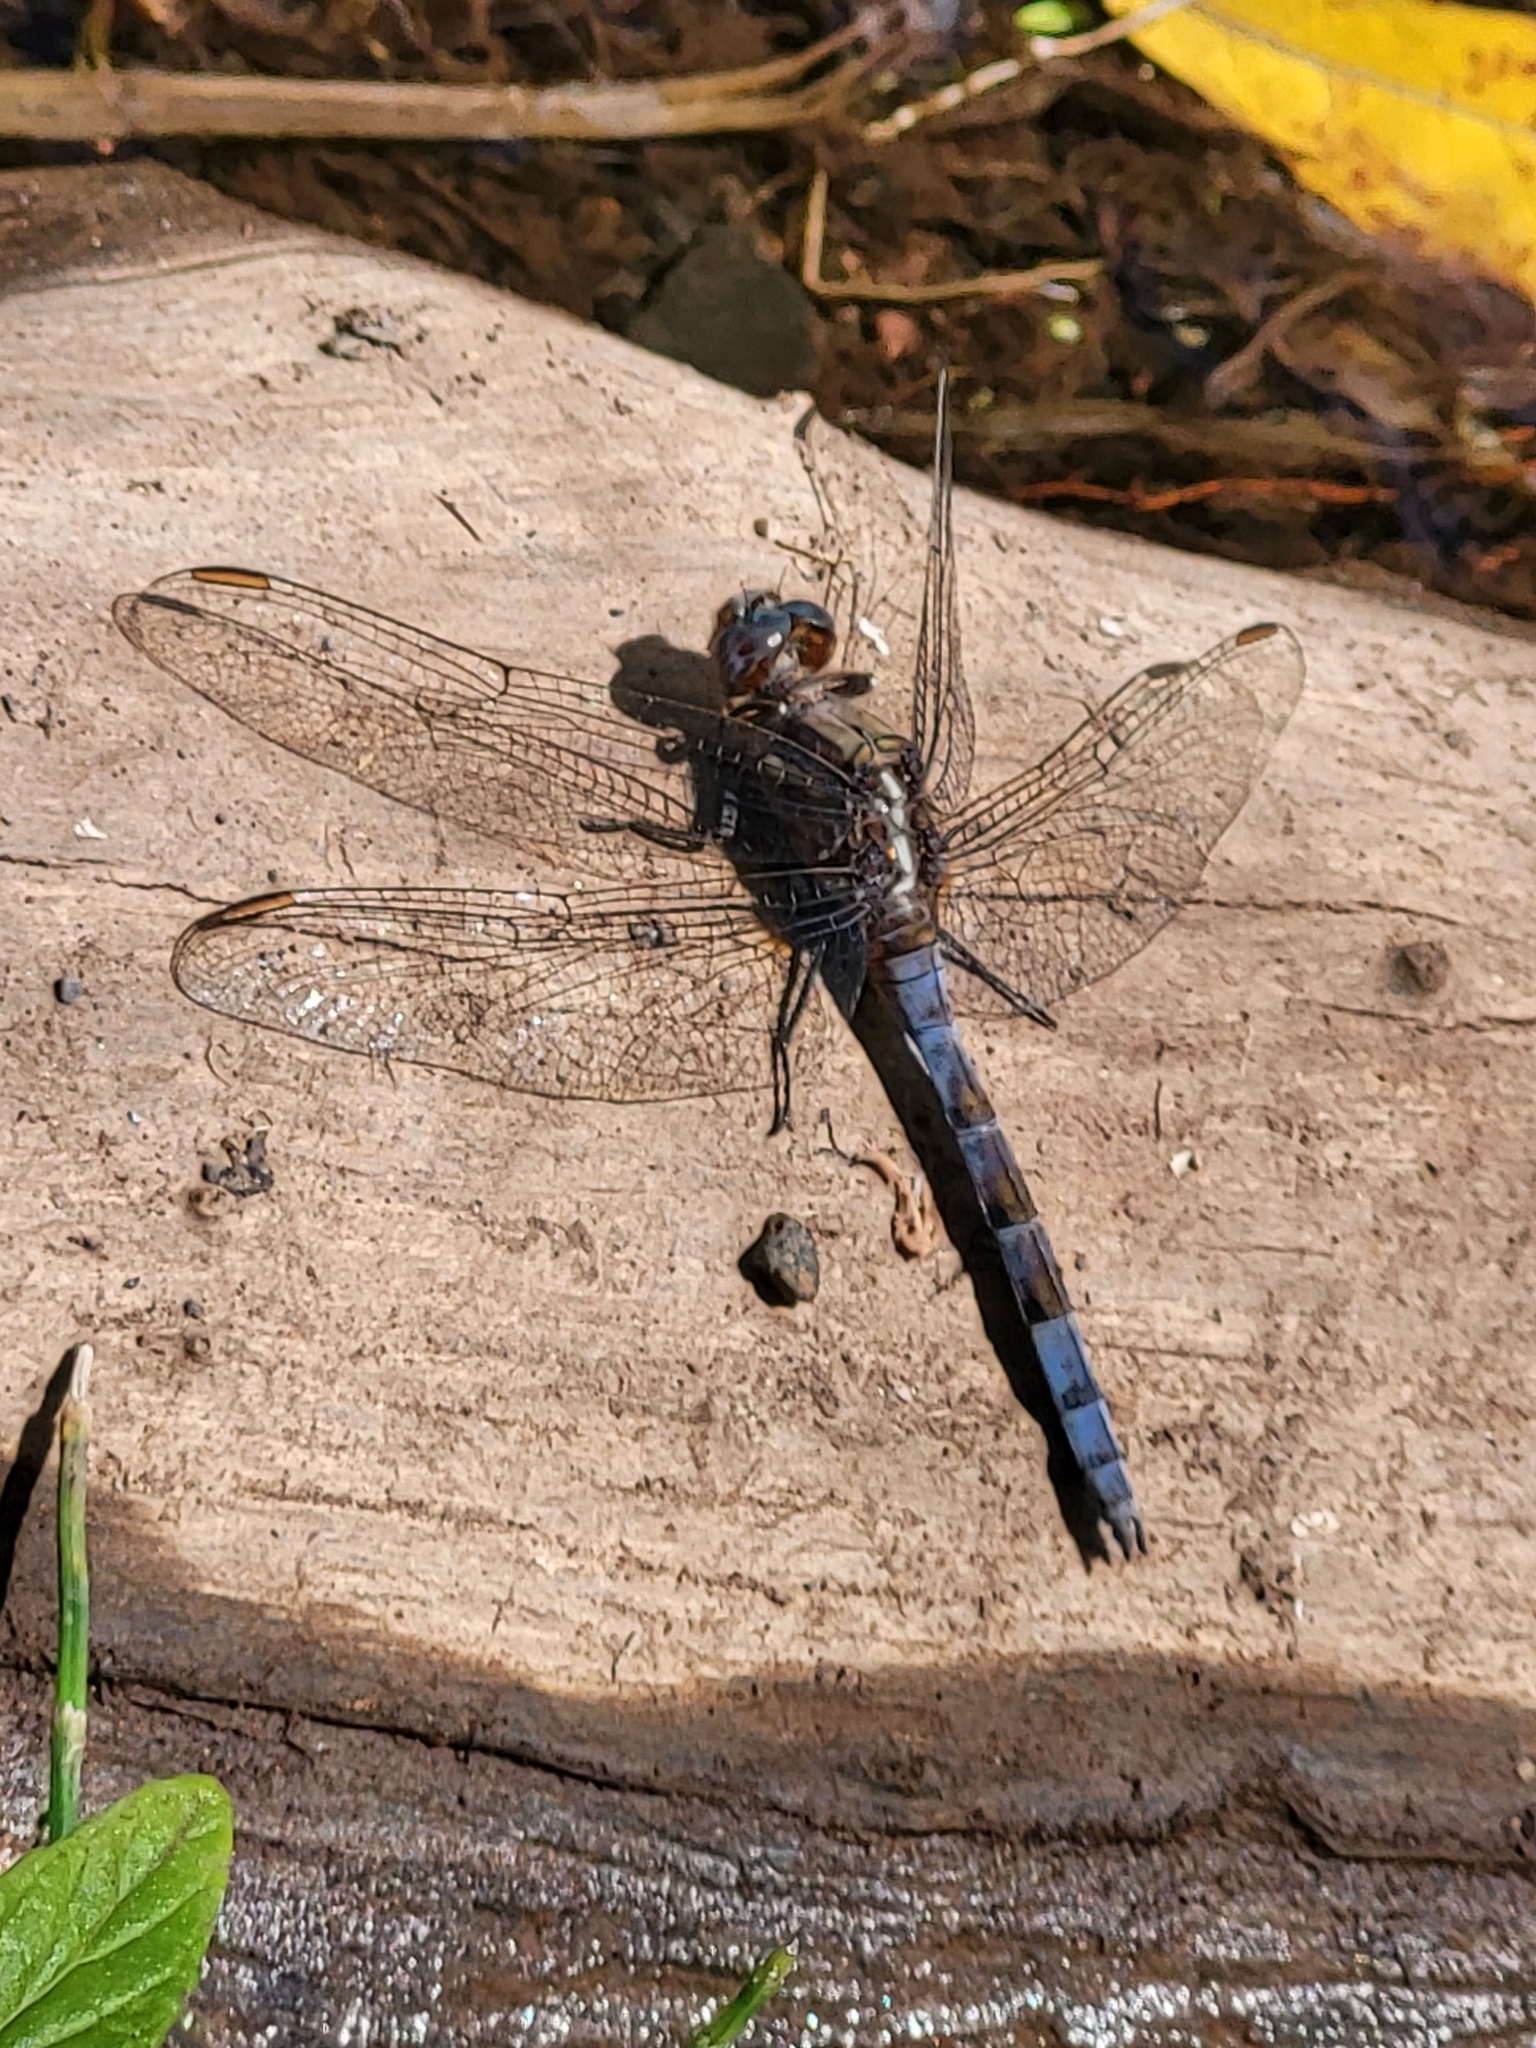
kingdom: Animalia
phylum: Arthropoda
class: Insecta
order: Odonata
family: Libellulidae
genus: Orthetrum
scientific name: Orthetrum chrysostigma
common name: Epaulet skimmer
